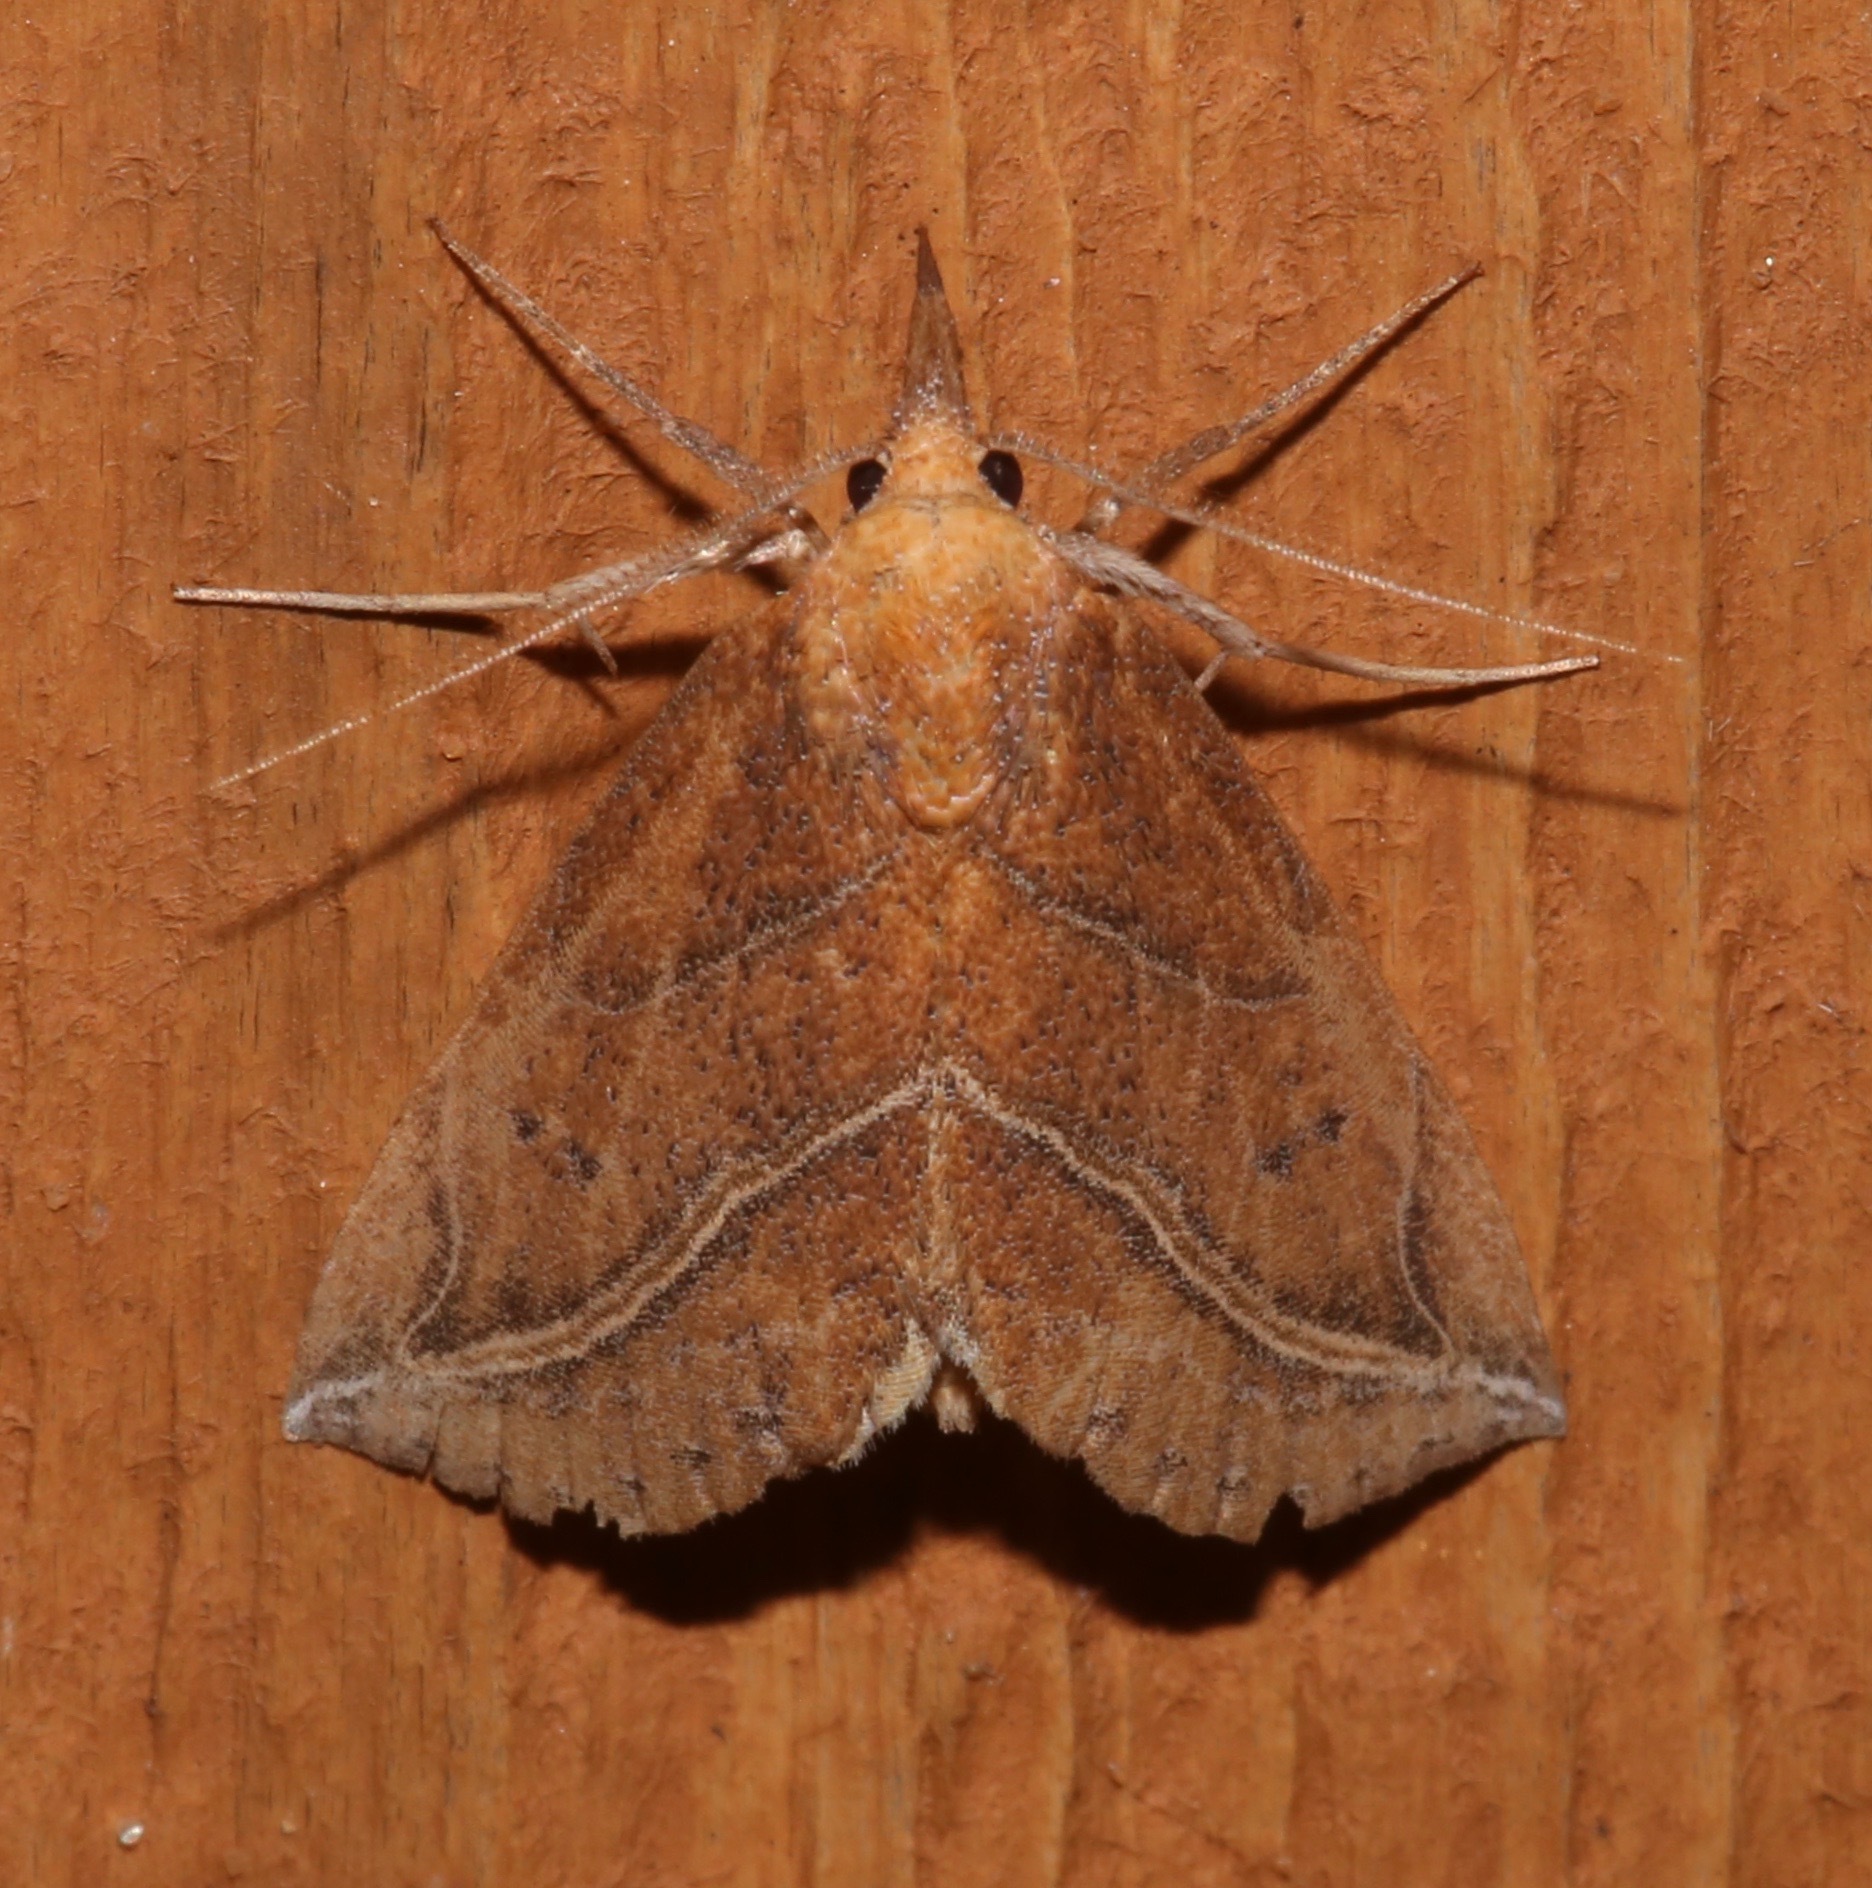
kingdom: Animalia
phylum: Arthropoda
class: Insecta
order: Lepidoptera
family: Erebidae
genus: Phyprosopus
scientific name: Phyprosopus callitrichoides
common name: Curved-lined owlet
